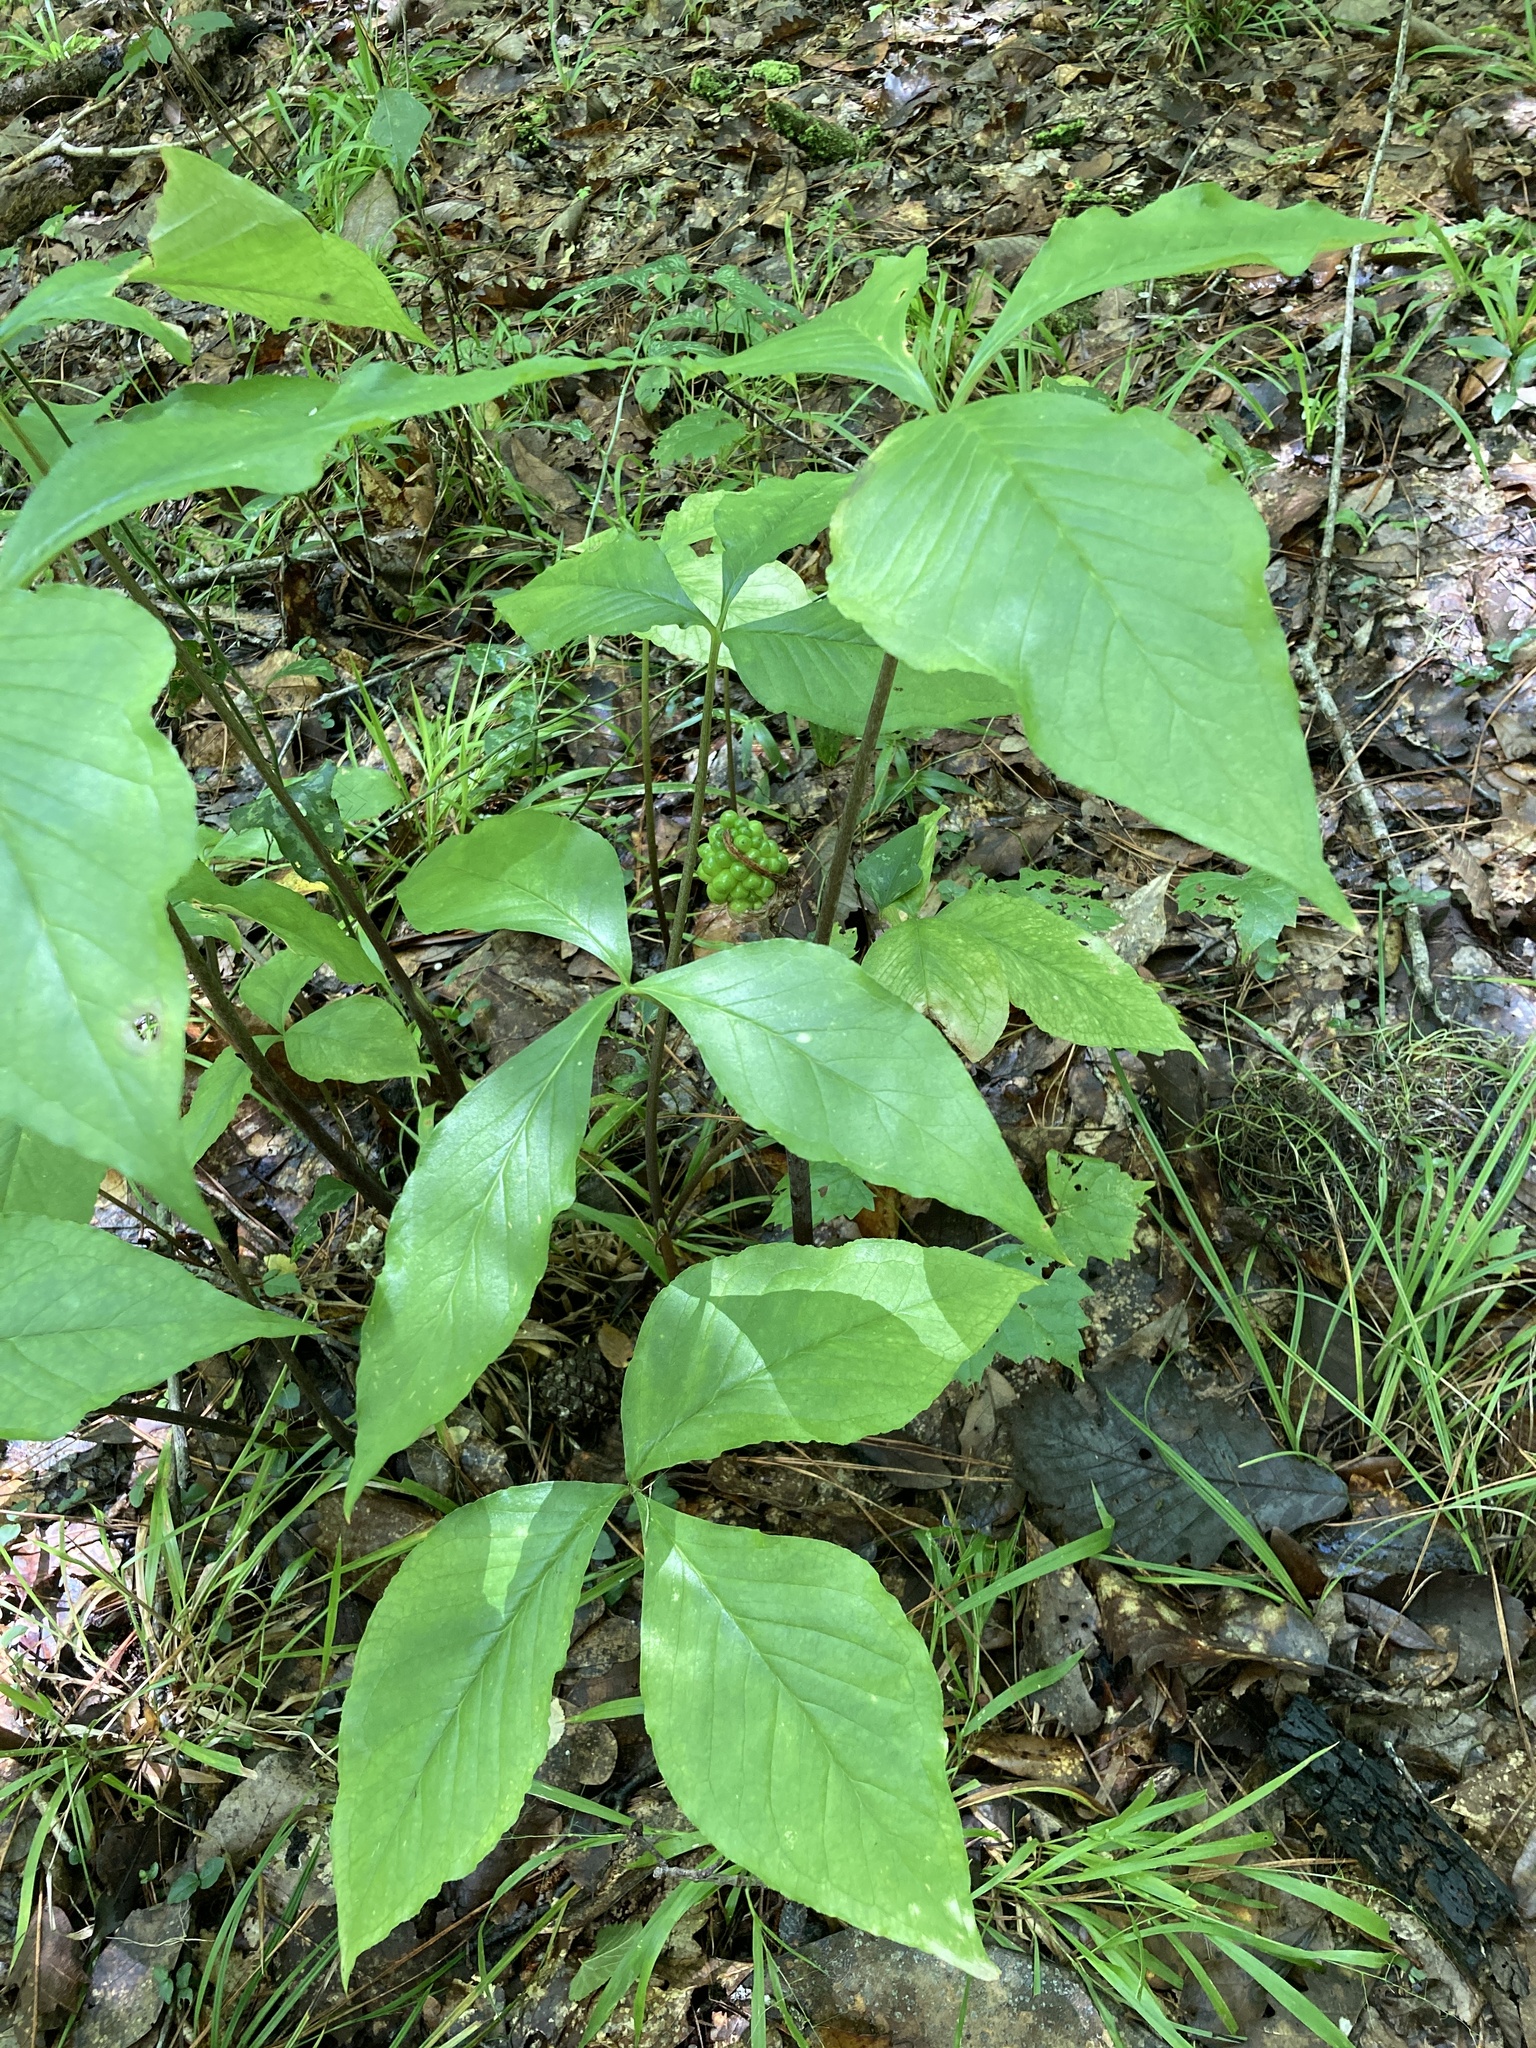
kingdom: Plantae
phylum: Tracheophyta
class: Liliopsida
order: Alismatales
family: Araceae
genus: Arisaema
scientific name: Arisaema acuminatum
